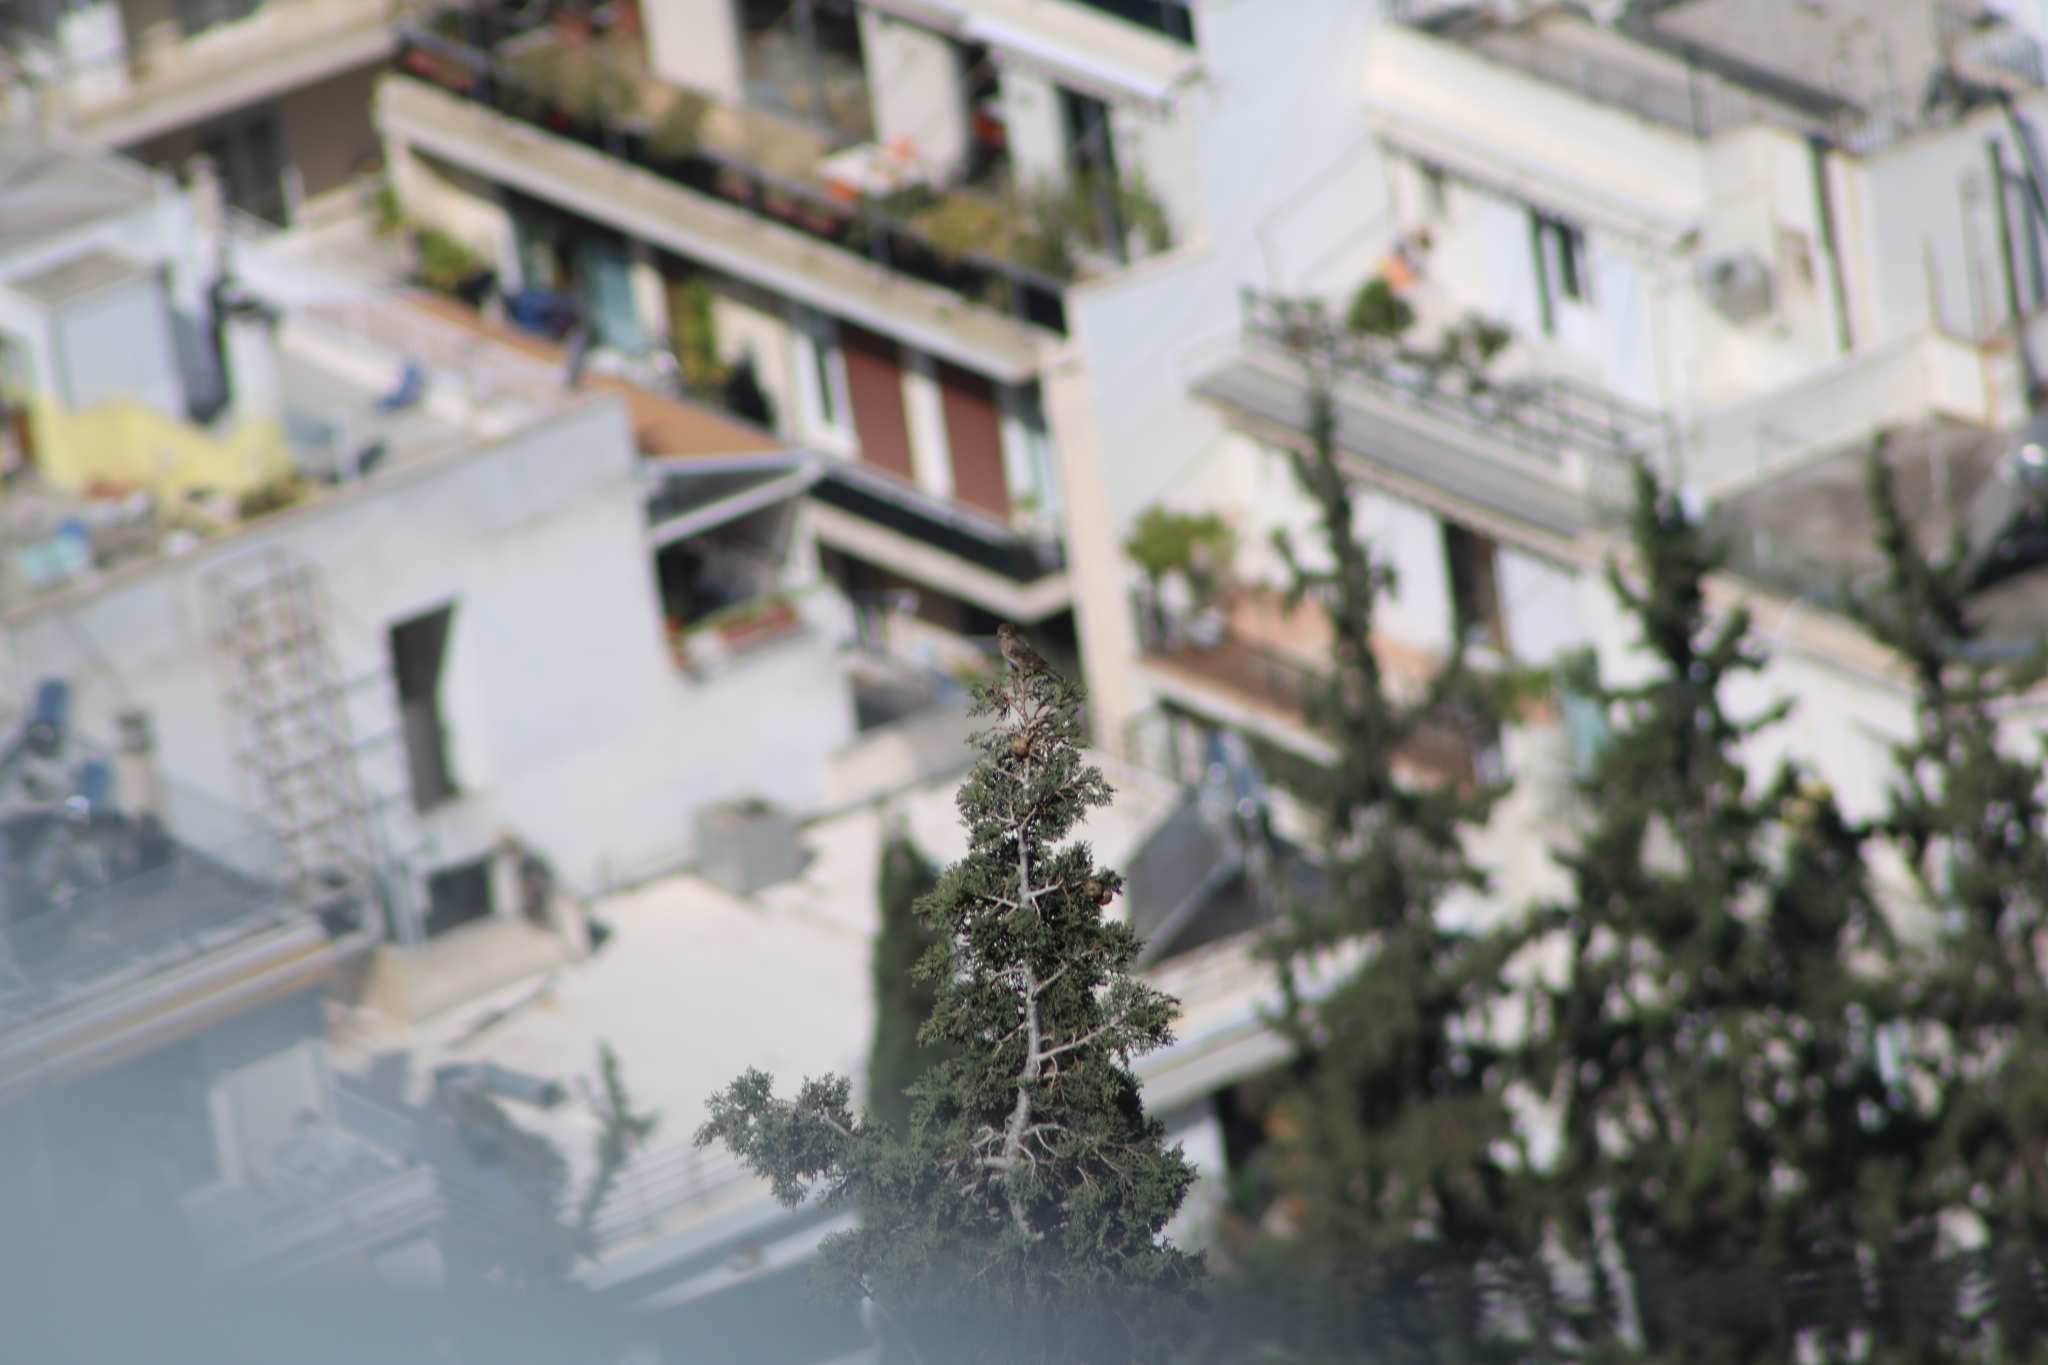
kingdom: Animalia
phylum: Chordata
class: Aves
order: Passeriformes
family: Fringillidae
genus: Haemorhous
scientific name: Haemorhous mexicanus
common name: House finch
